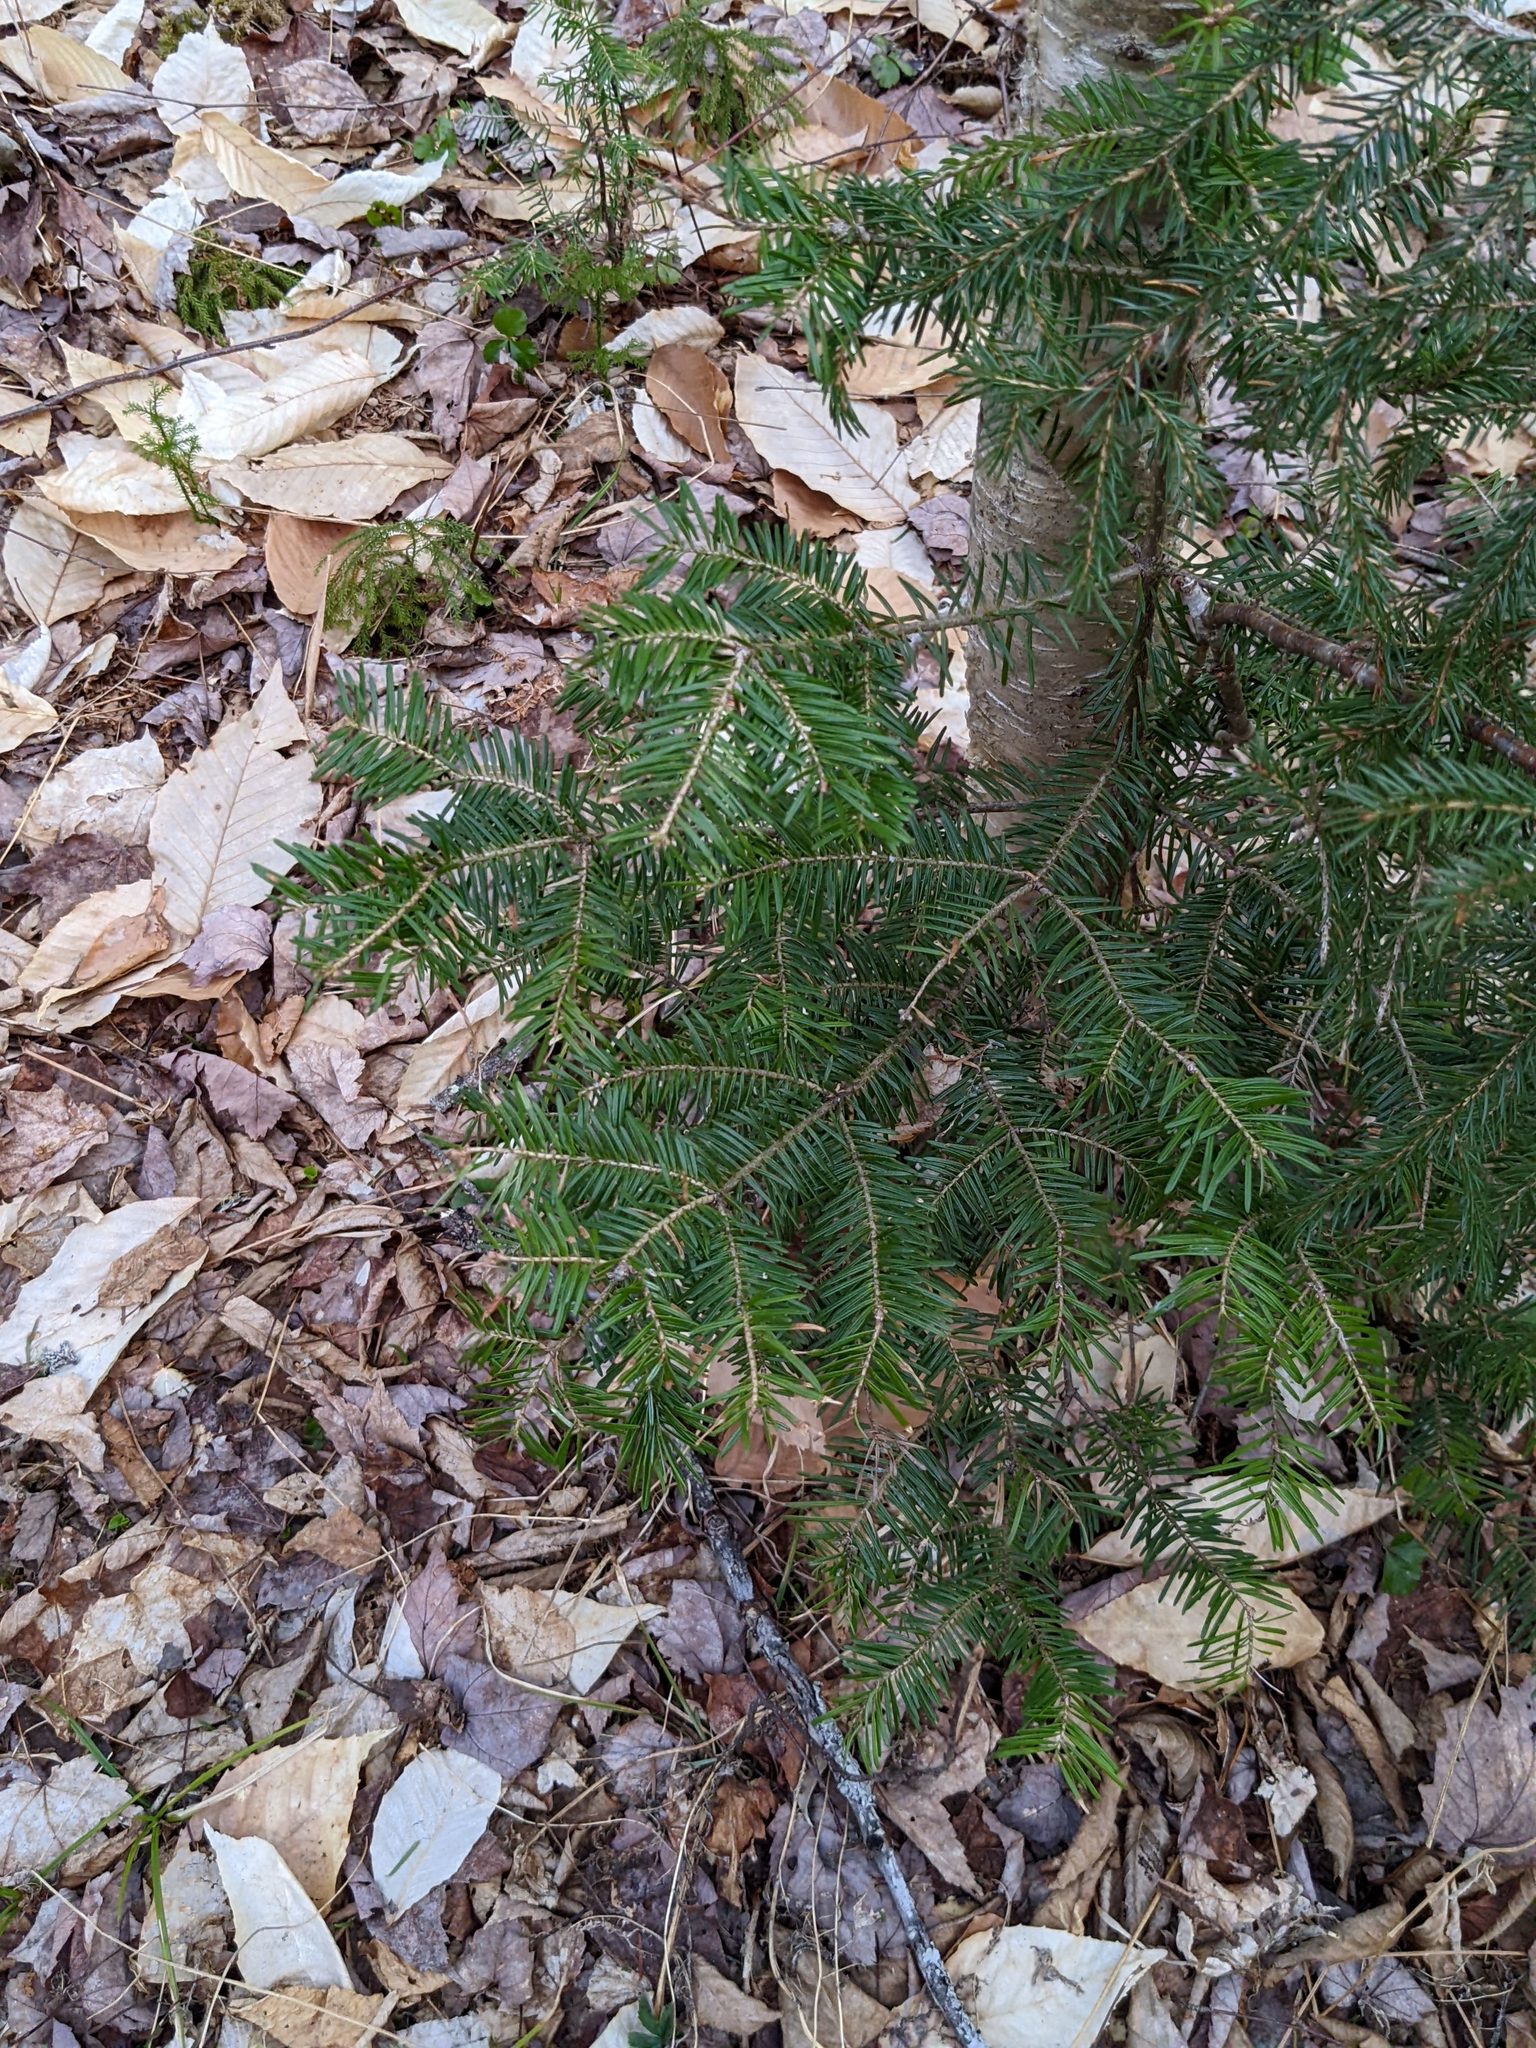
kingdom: Plantae
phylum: Tracheophyta
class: Pinopsida
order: Pinales
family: Pinaceae
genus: Abies
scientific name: Abies balsamea
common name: Balsam fir
